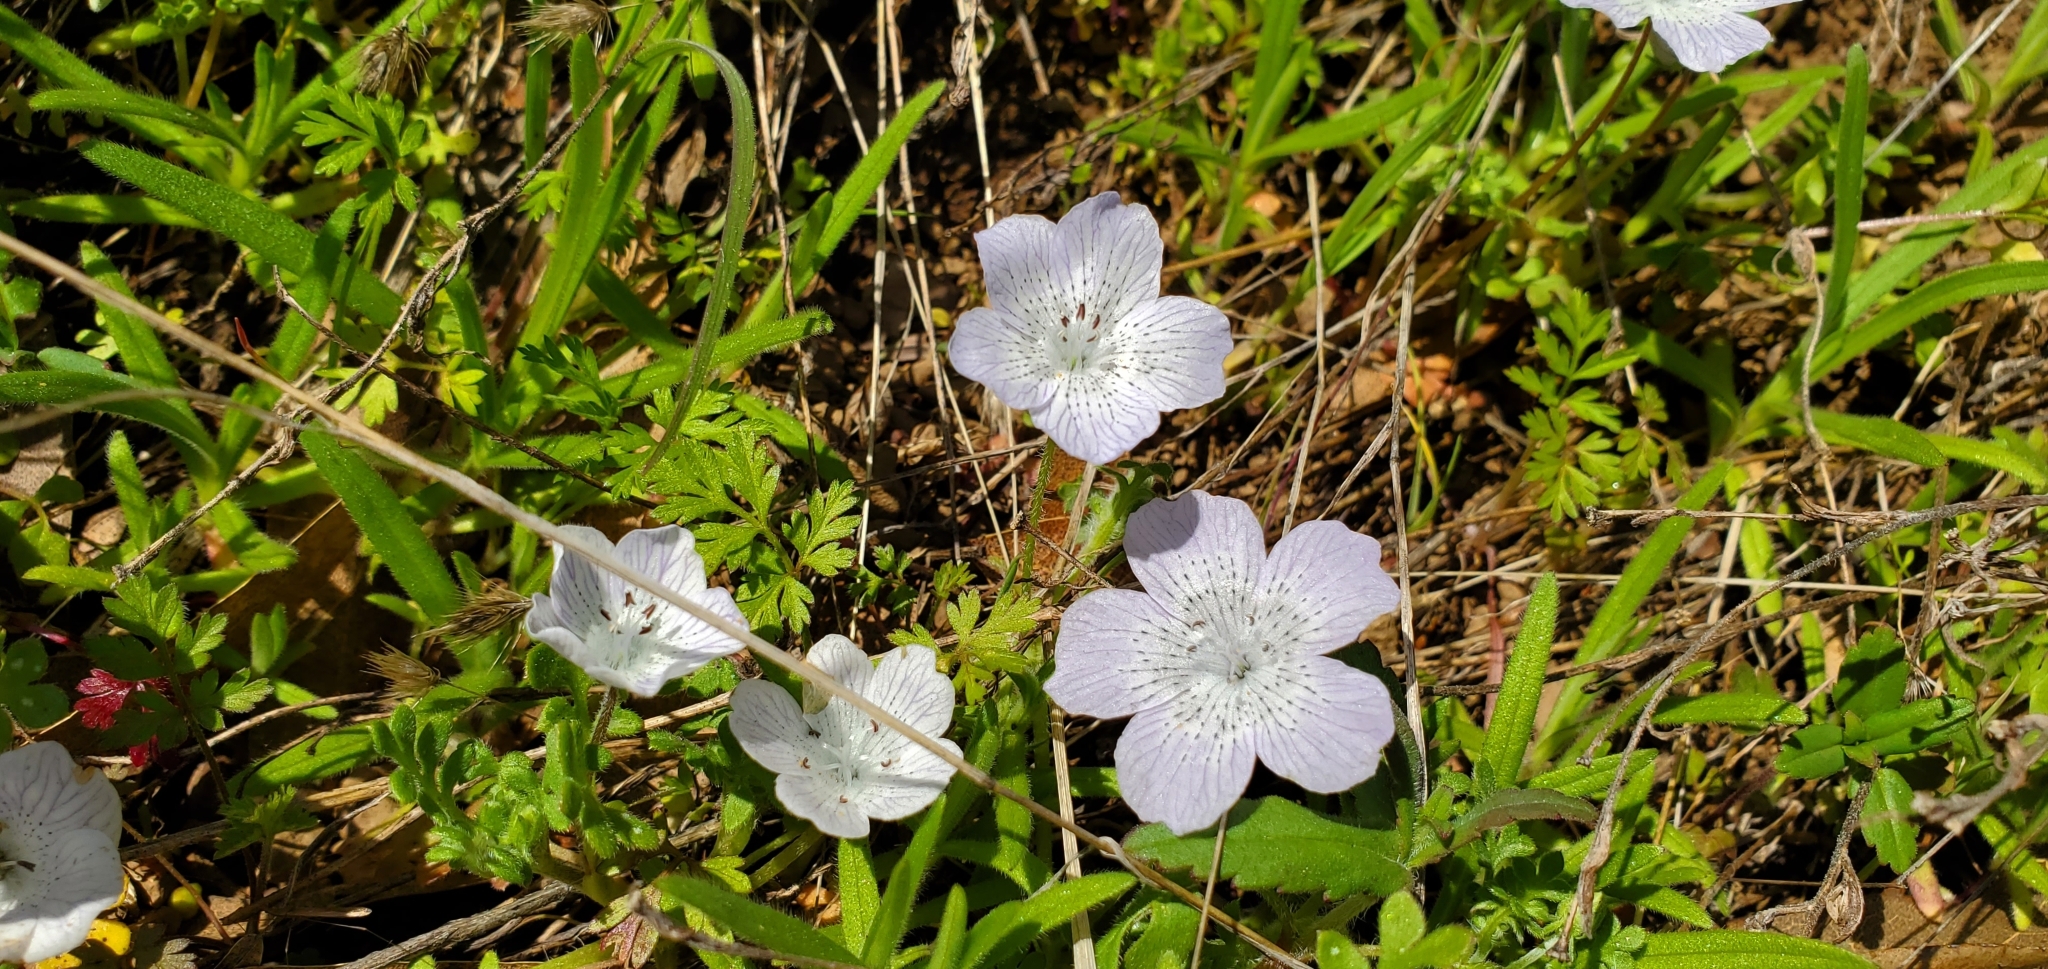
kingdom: Plantae
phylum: Tracheophyta
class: Magnoliopsida
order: Boraginales
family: Hydrophyllaceae
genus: Nemophila
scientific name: Nemophila menziesii
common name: Baby's-blue-eyes
